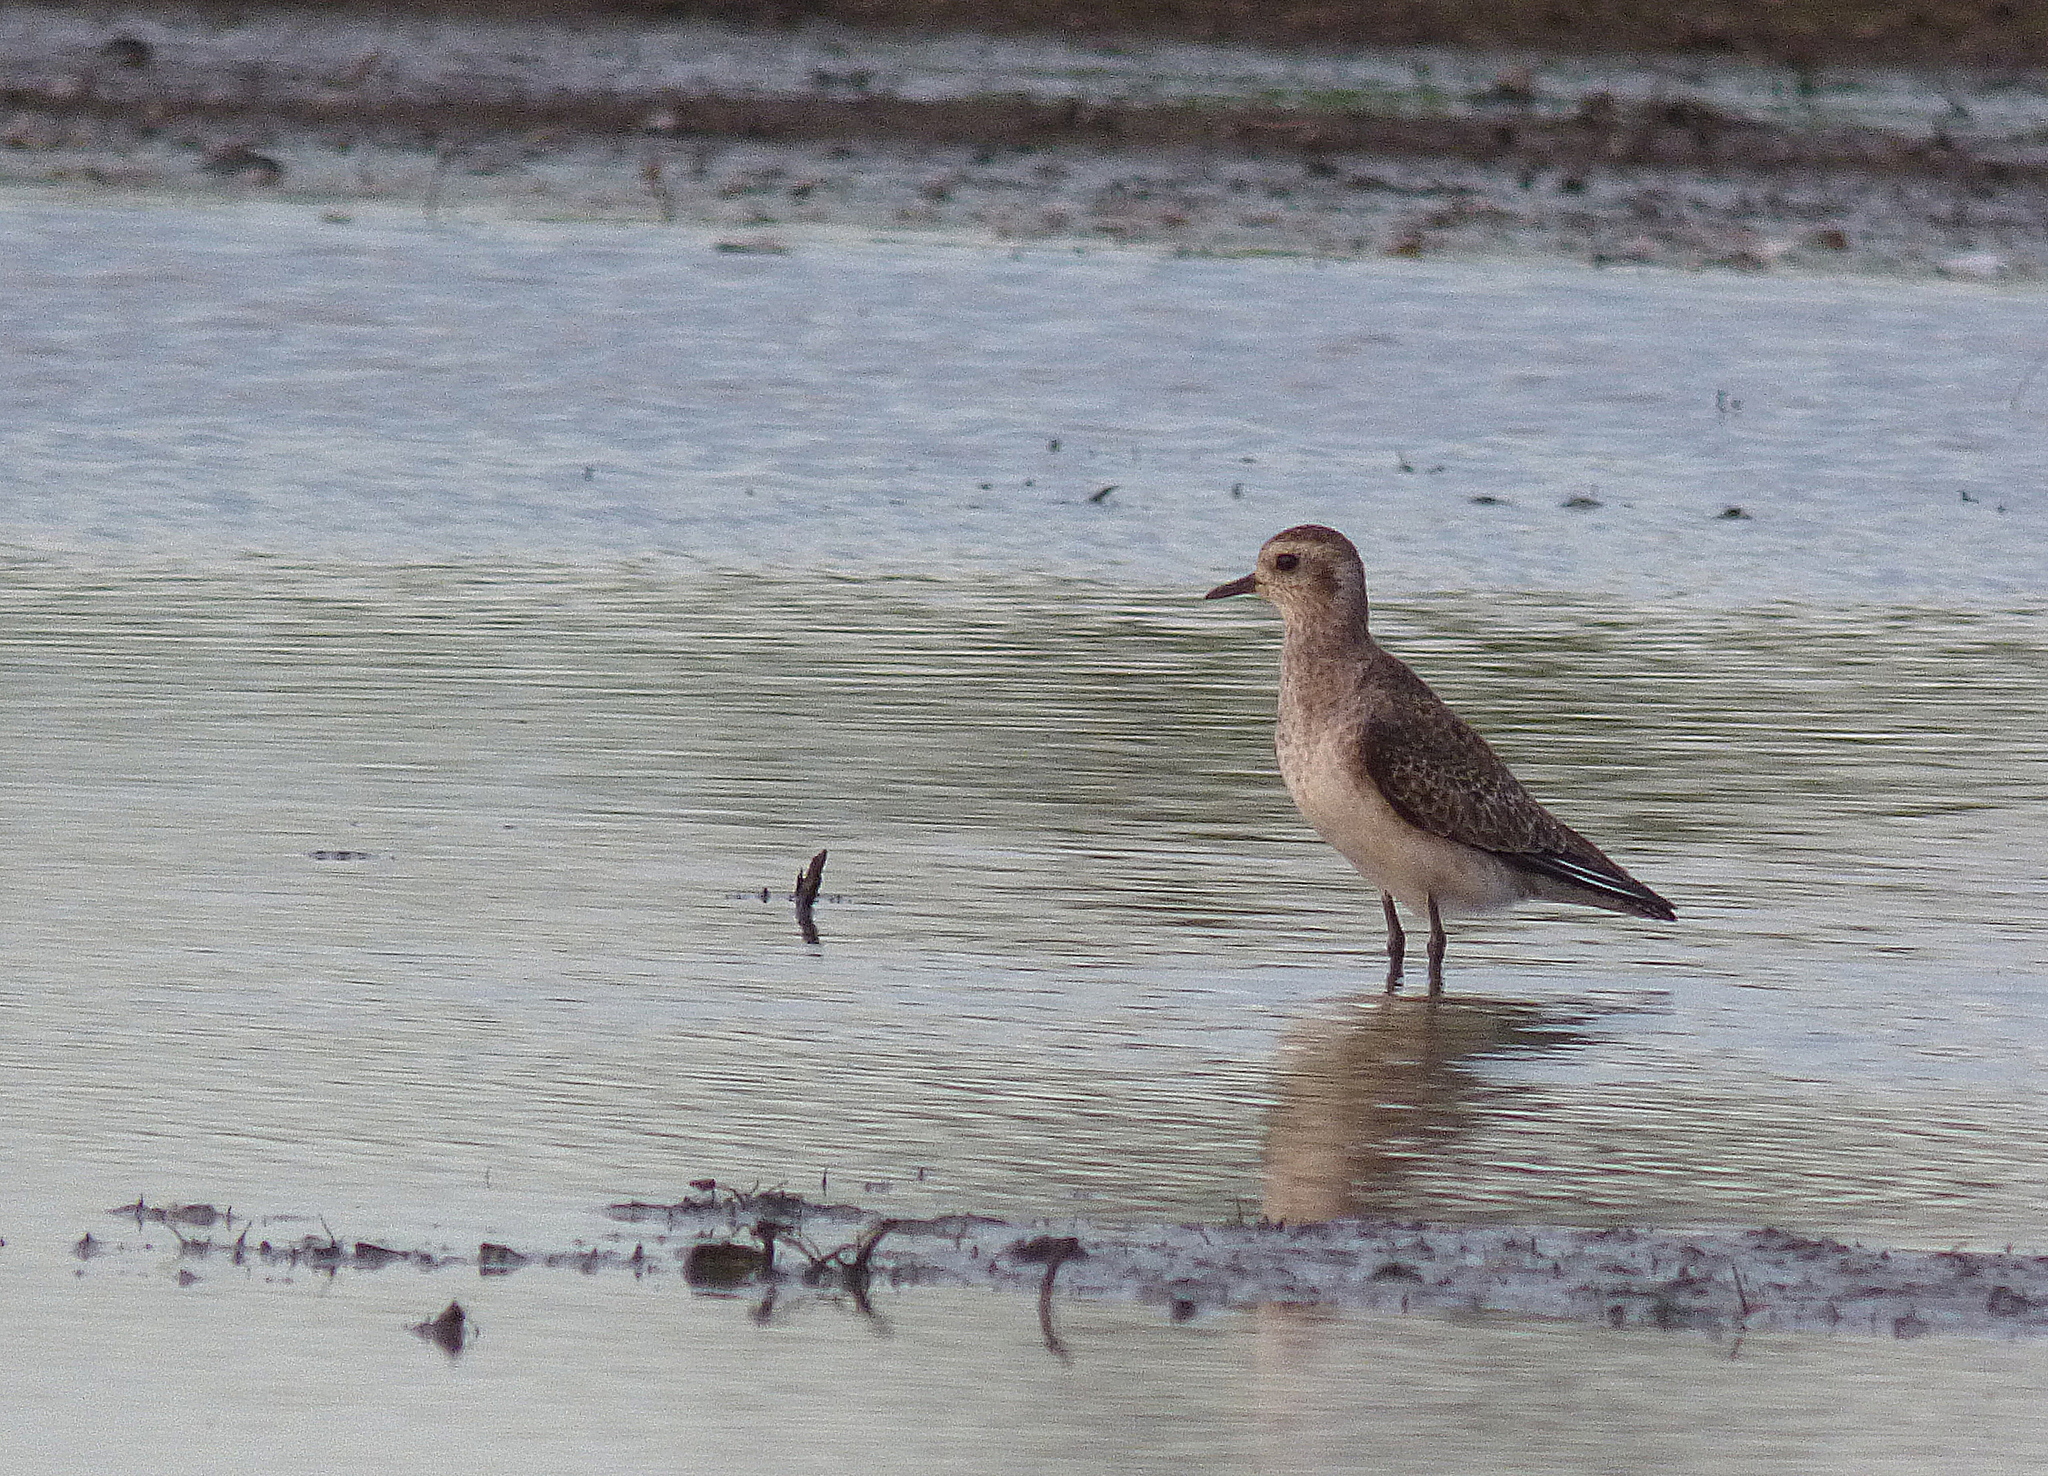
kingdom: Animalia
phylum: Chordata
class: Aves
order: Charadriiformes
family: Charadriidae
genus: Pluvialis
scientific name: Pluvialis dominica
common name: American golden plover
